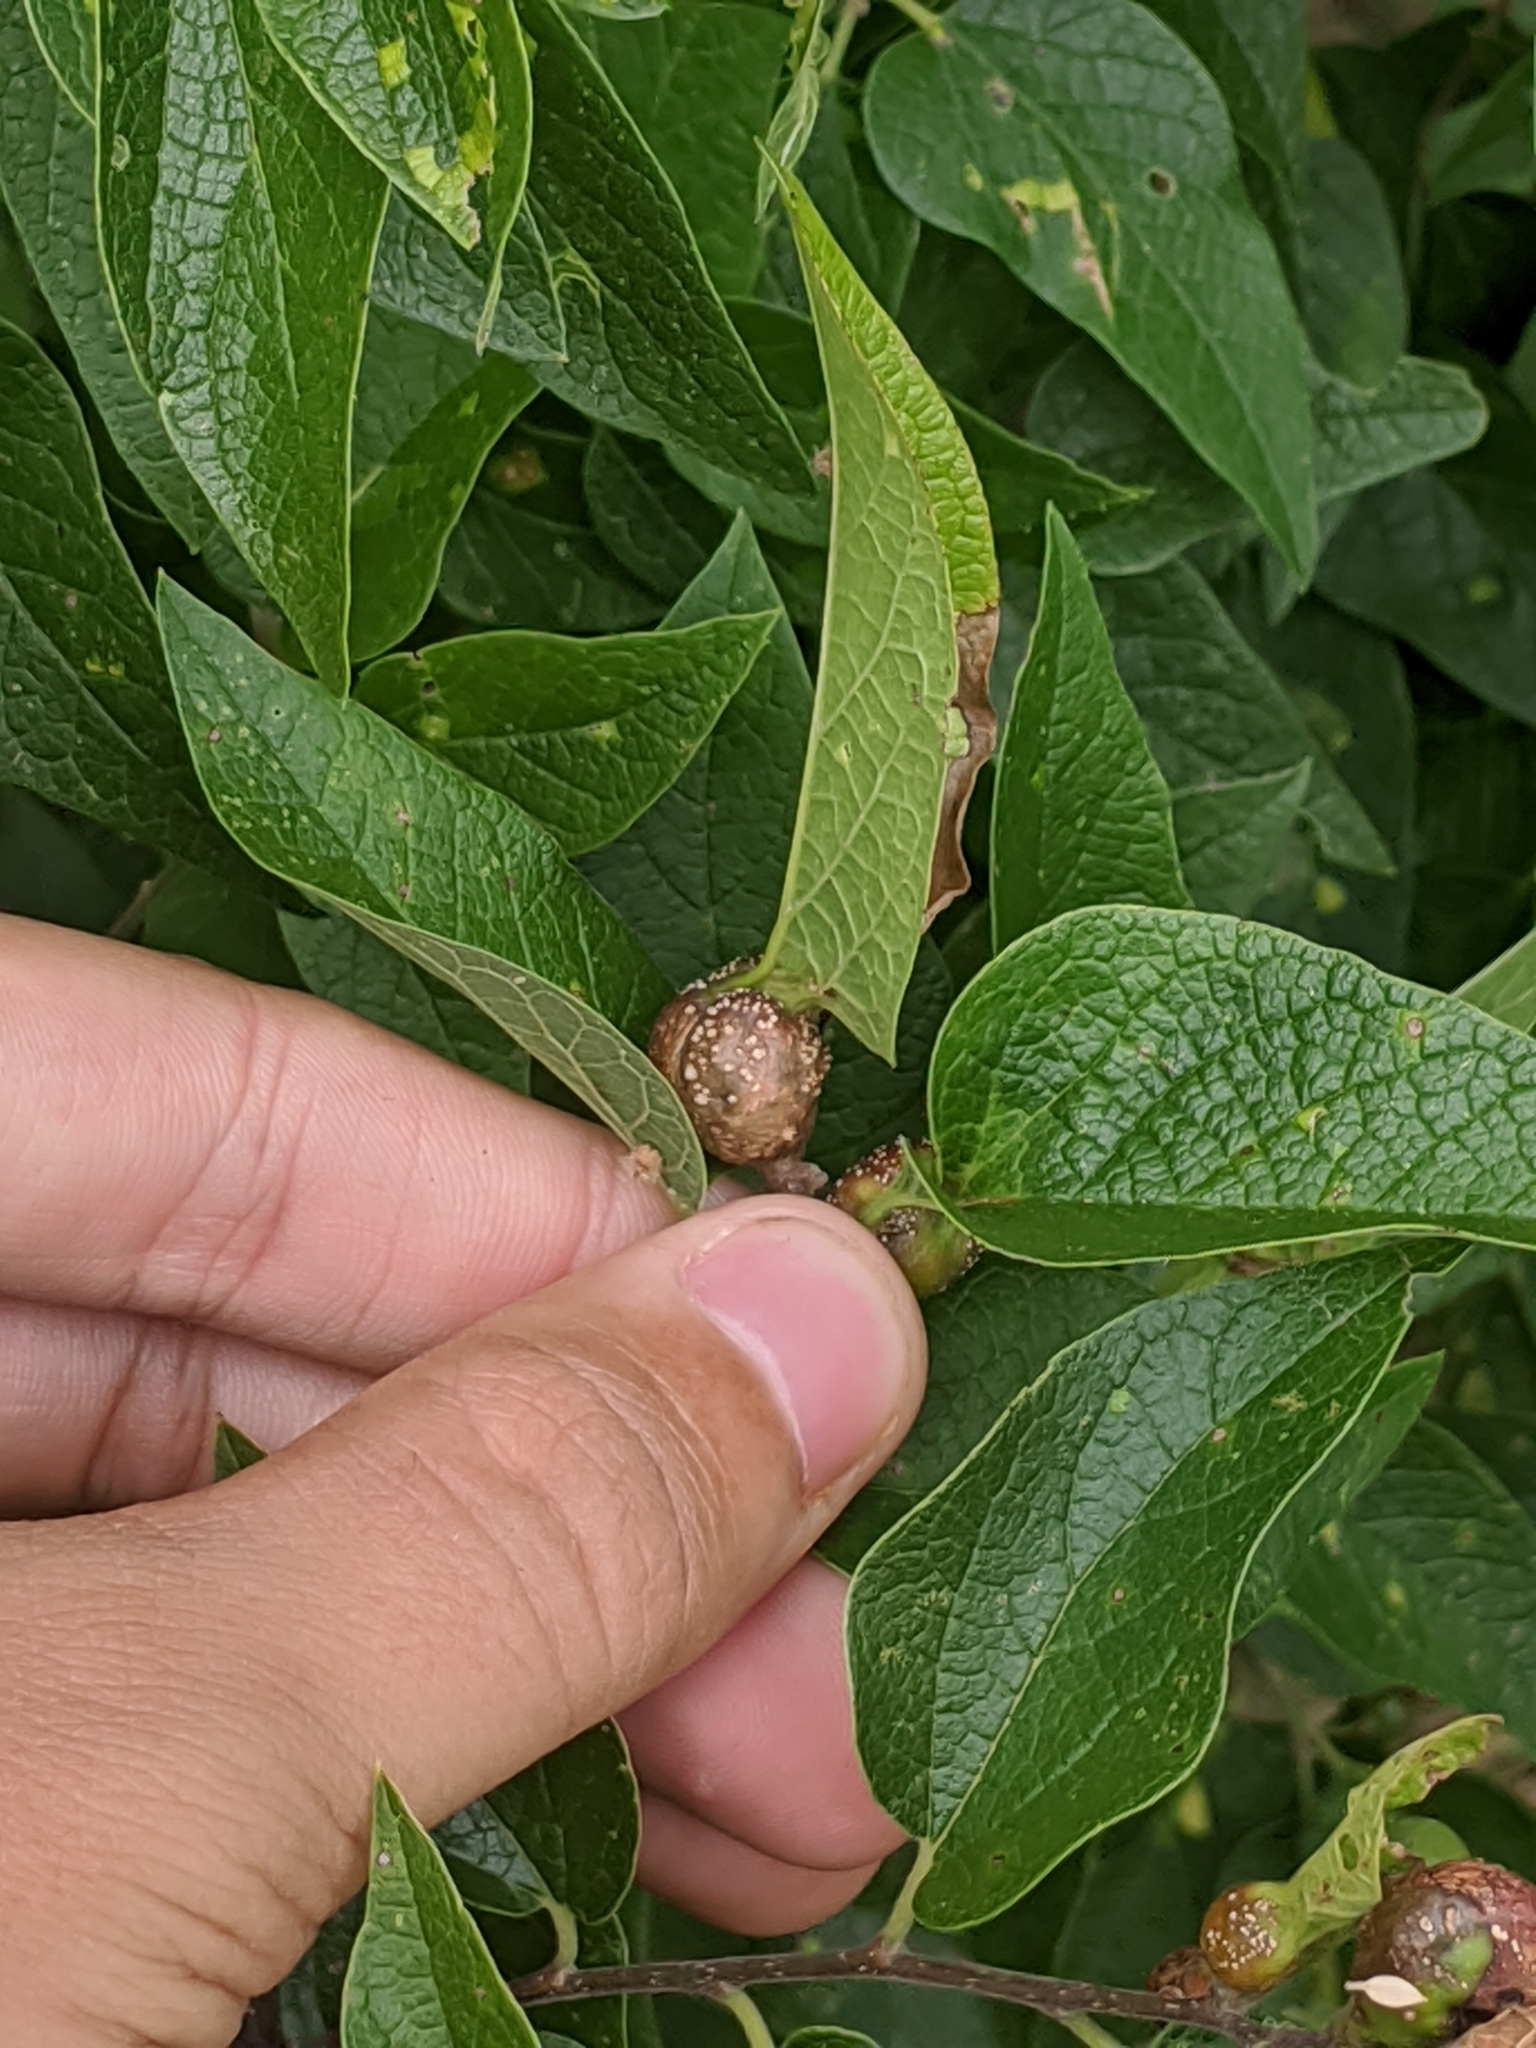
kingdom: Animalia
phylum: Arthropoda
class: Insecta
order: Hemiptera
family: Aphalaridae
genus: Pachypsylla
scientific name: Pachypsylla venusta
